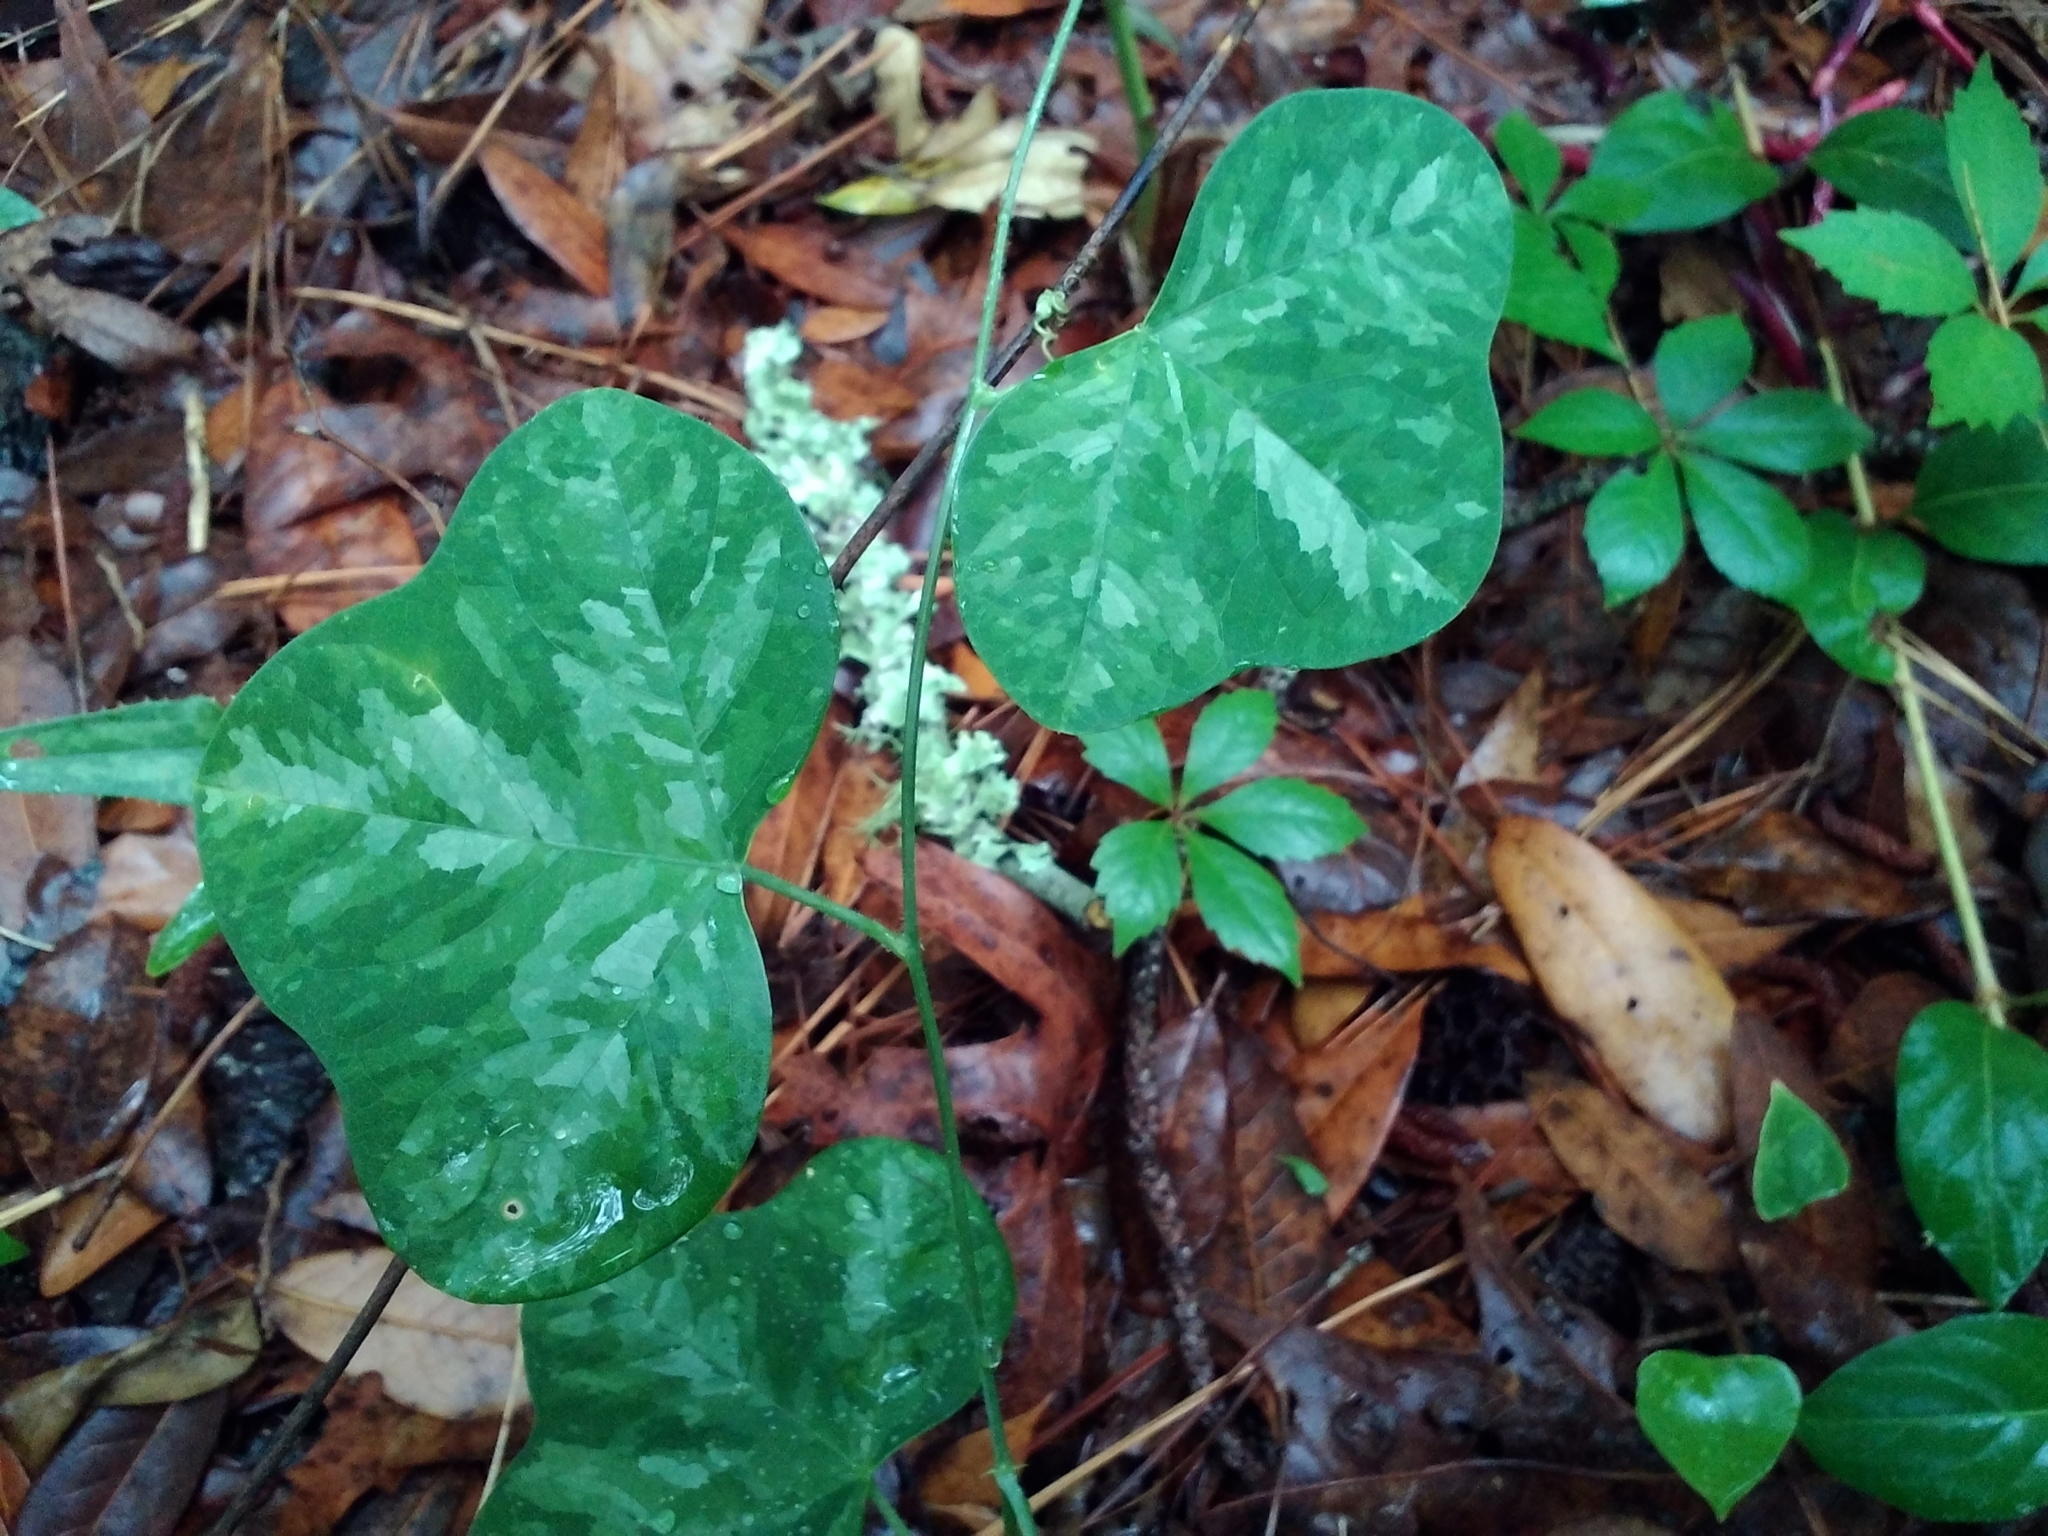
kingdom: Plantae
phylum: Tracheophyta
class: Magnoliopsida
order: Malpighiales
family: Passifloraceae
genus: Passiflora
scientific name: Passiflora lutea
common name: Yellow passionflower
